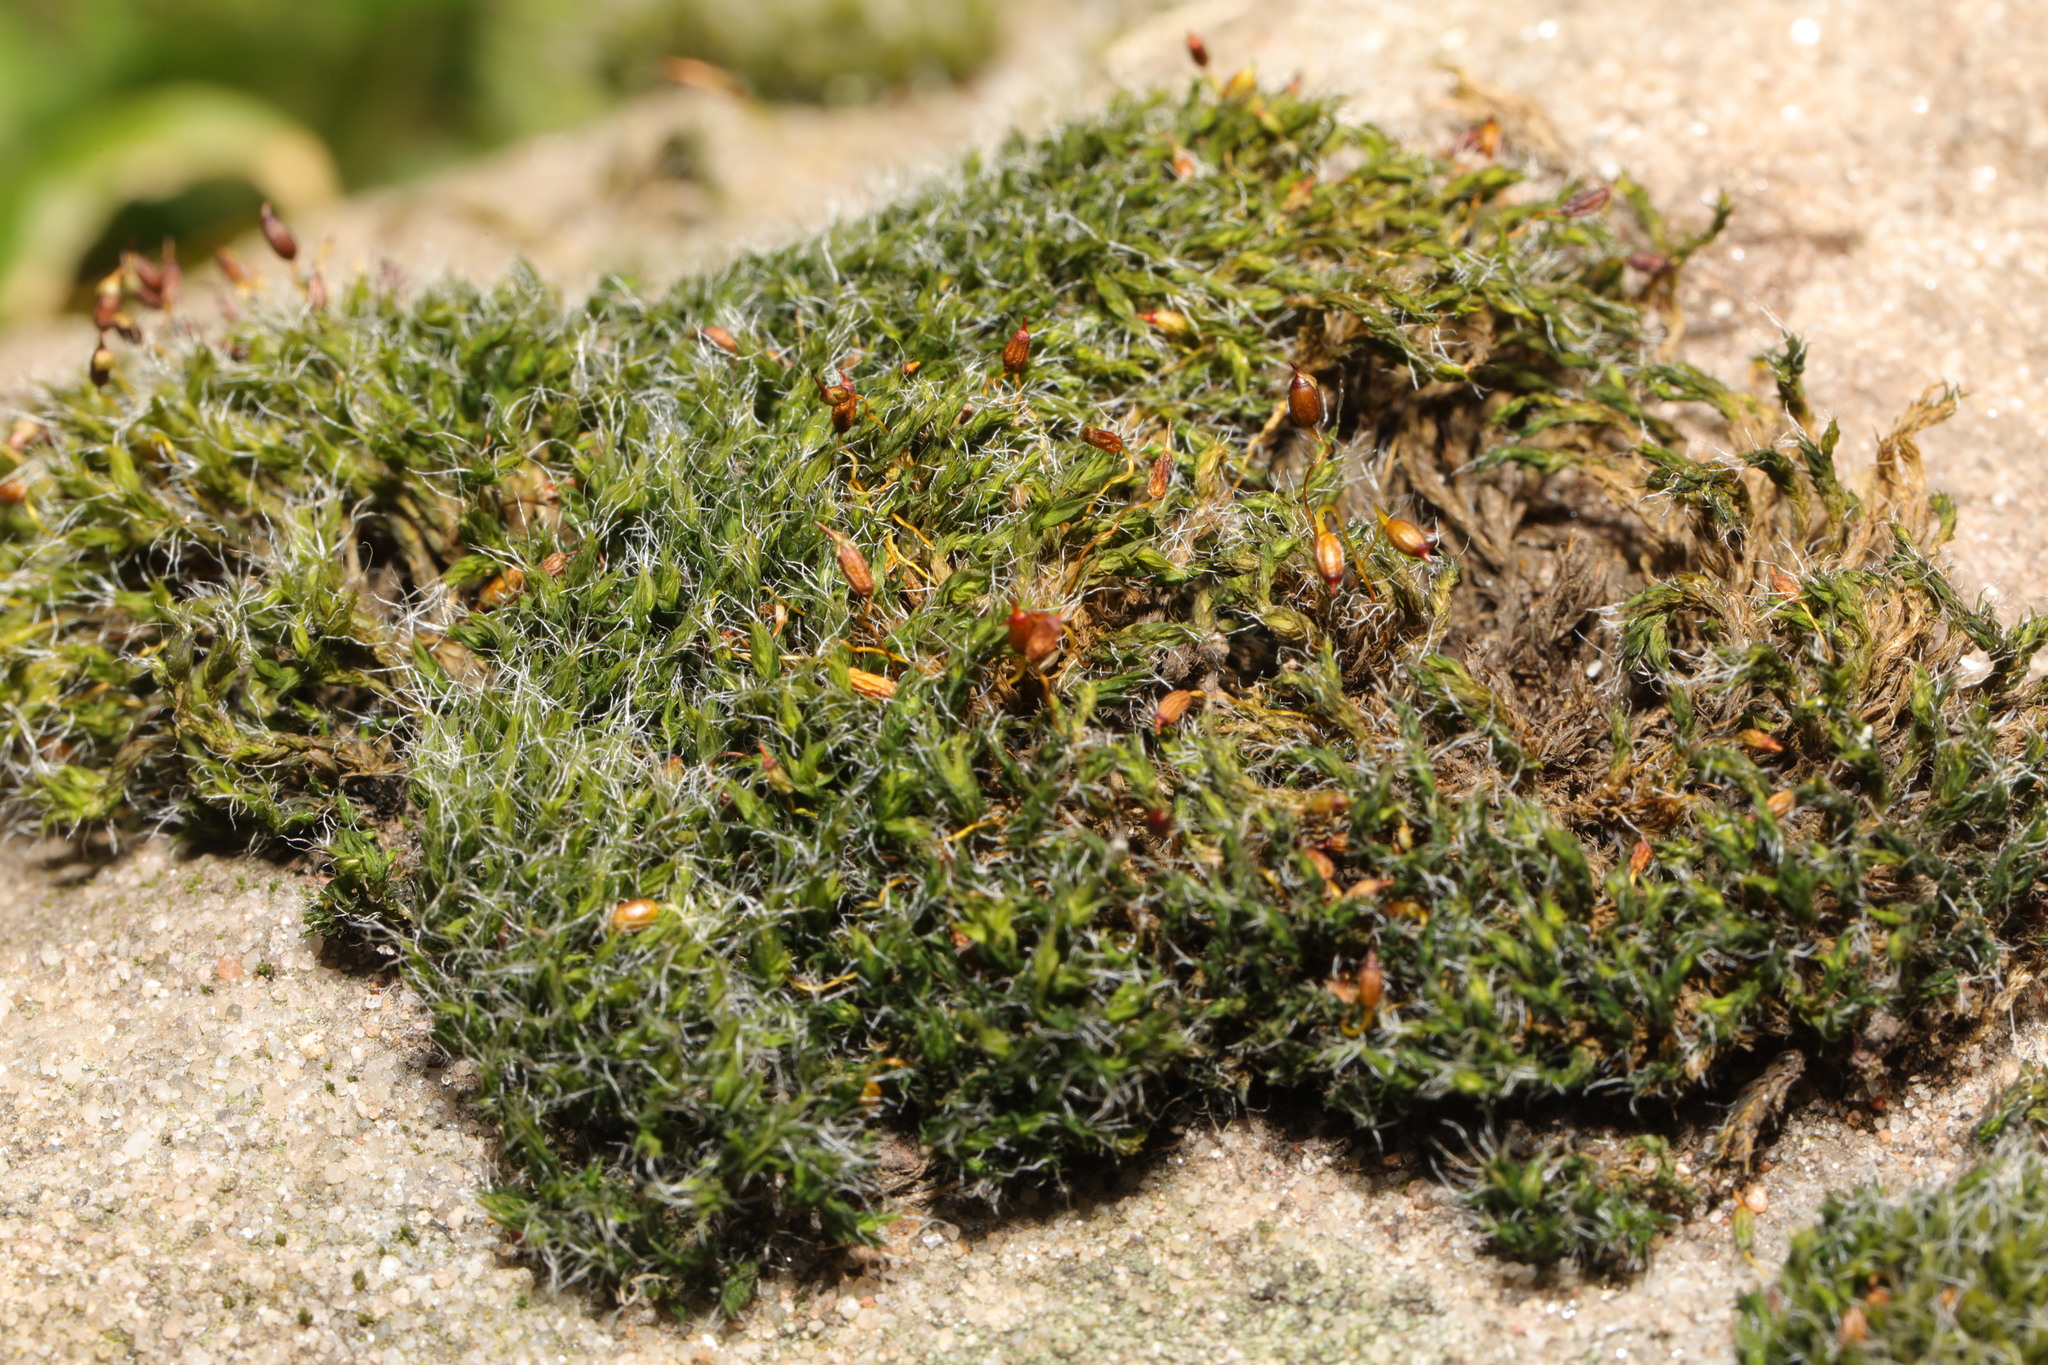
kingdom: Plantae
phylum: Bryophyta
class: Bryopsida
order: Grimmiales
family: Grimmiaceae
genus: Grimmia
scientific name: Grimmia pulvinata
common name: Grey-cushioned grimmia
